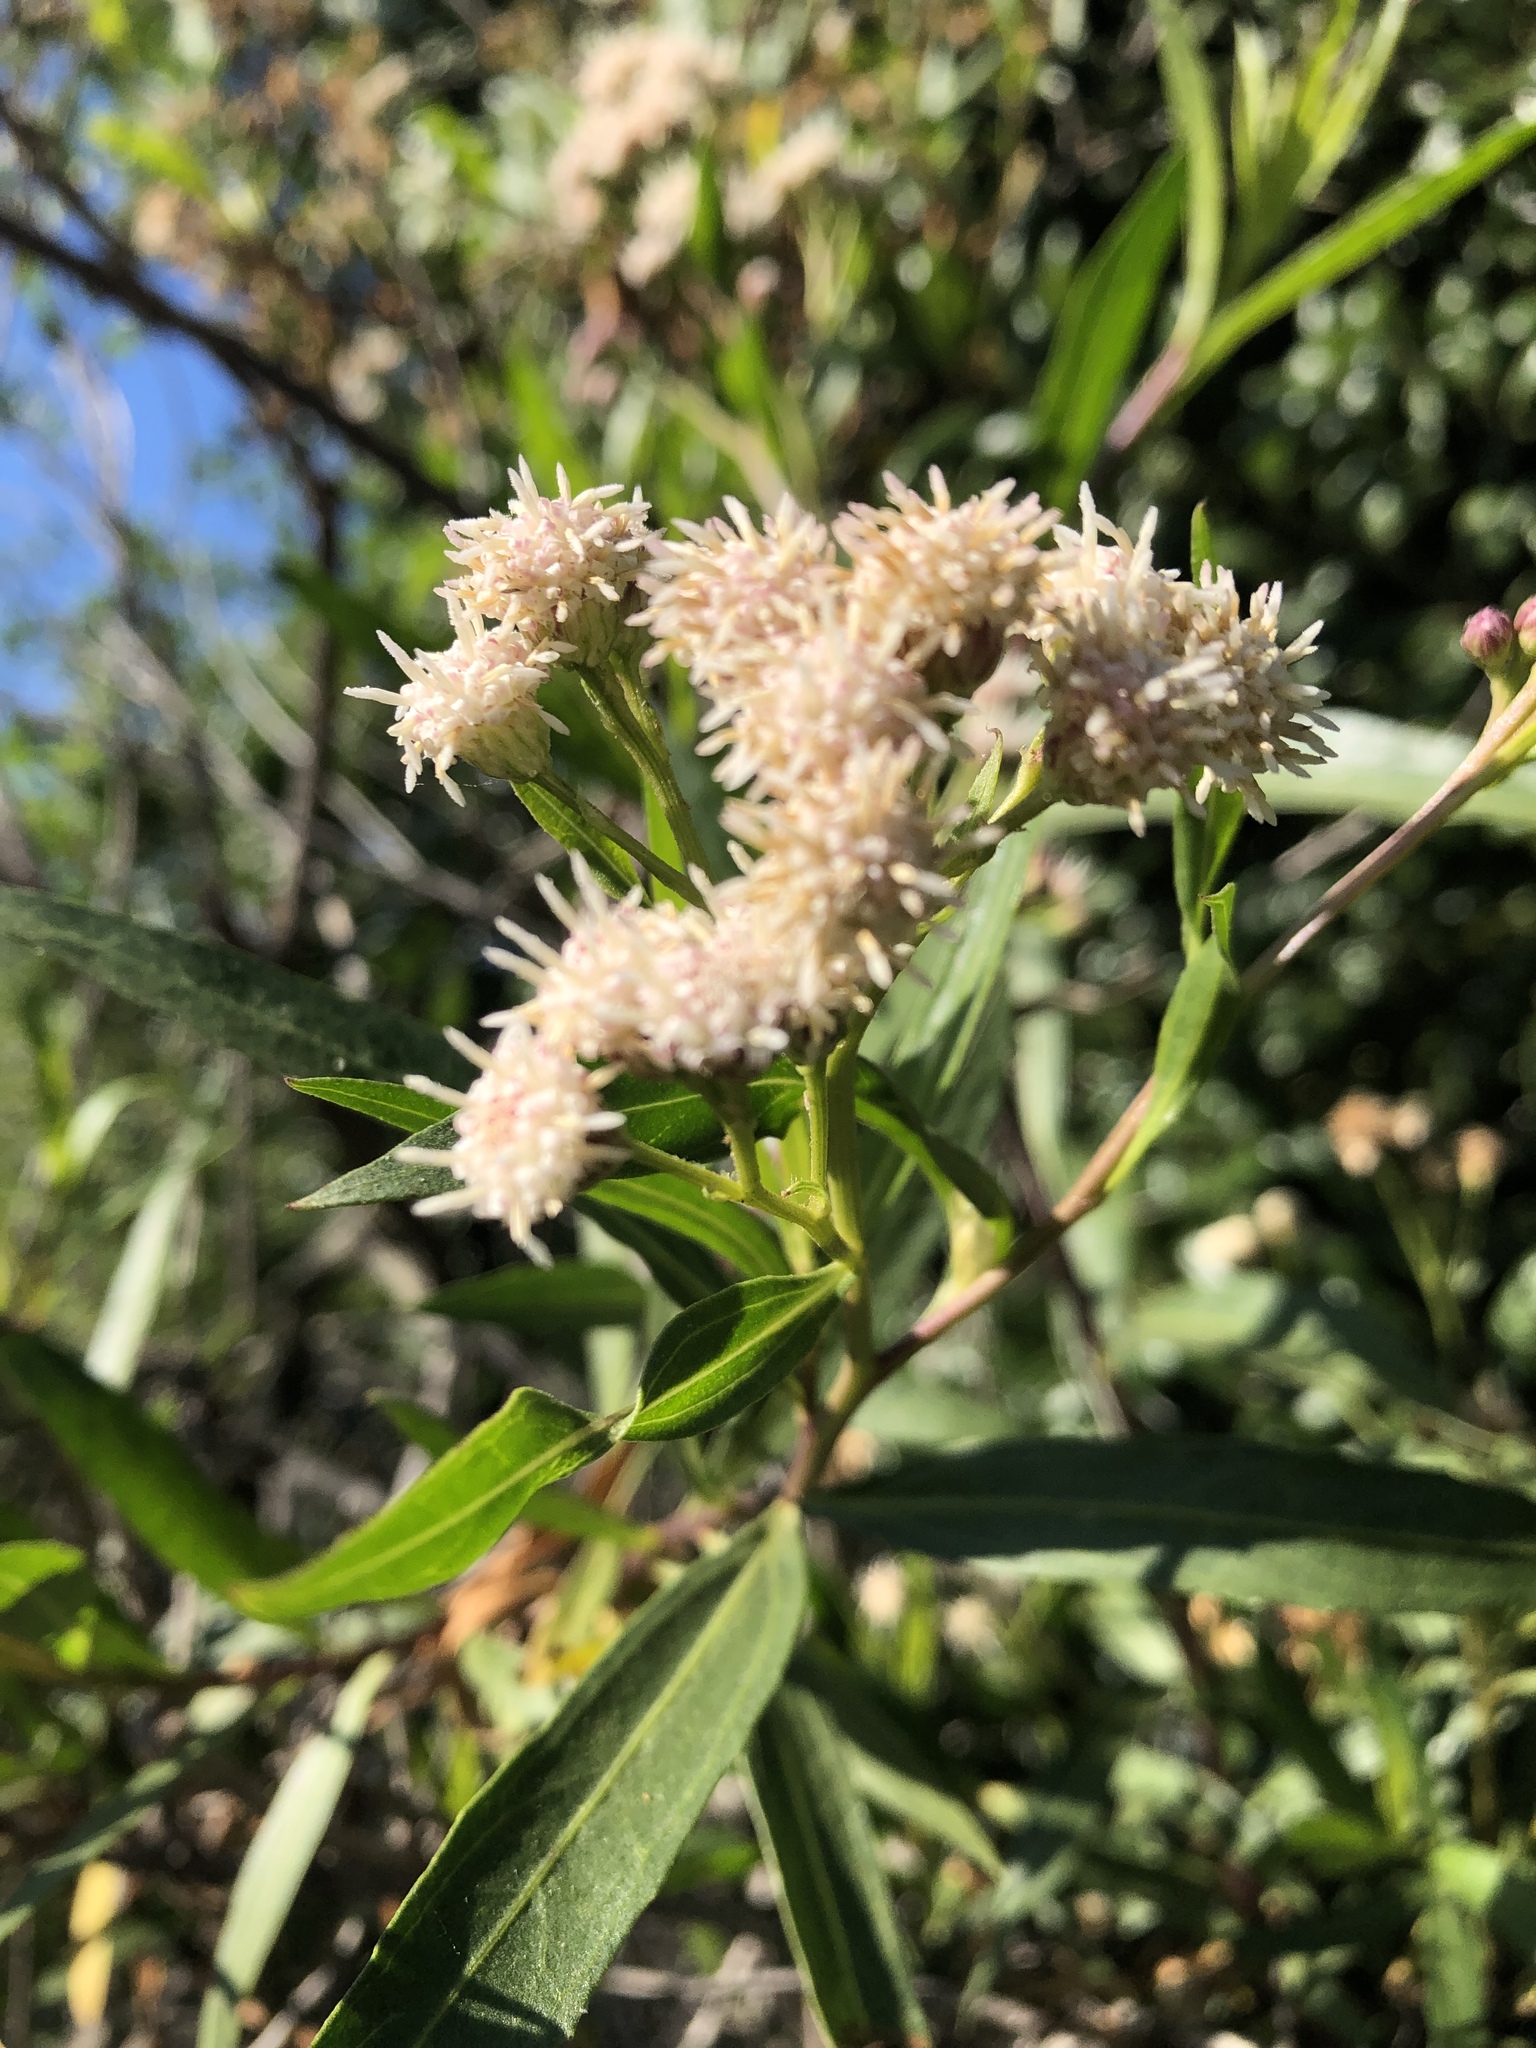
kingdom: Plantae
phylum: Tracheophyta
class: Magnoliopsida
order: Asterales
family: Asteraceae
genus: Baccharis
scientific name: Baccharis salicifolia
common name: Sticky baccharis
